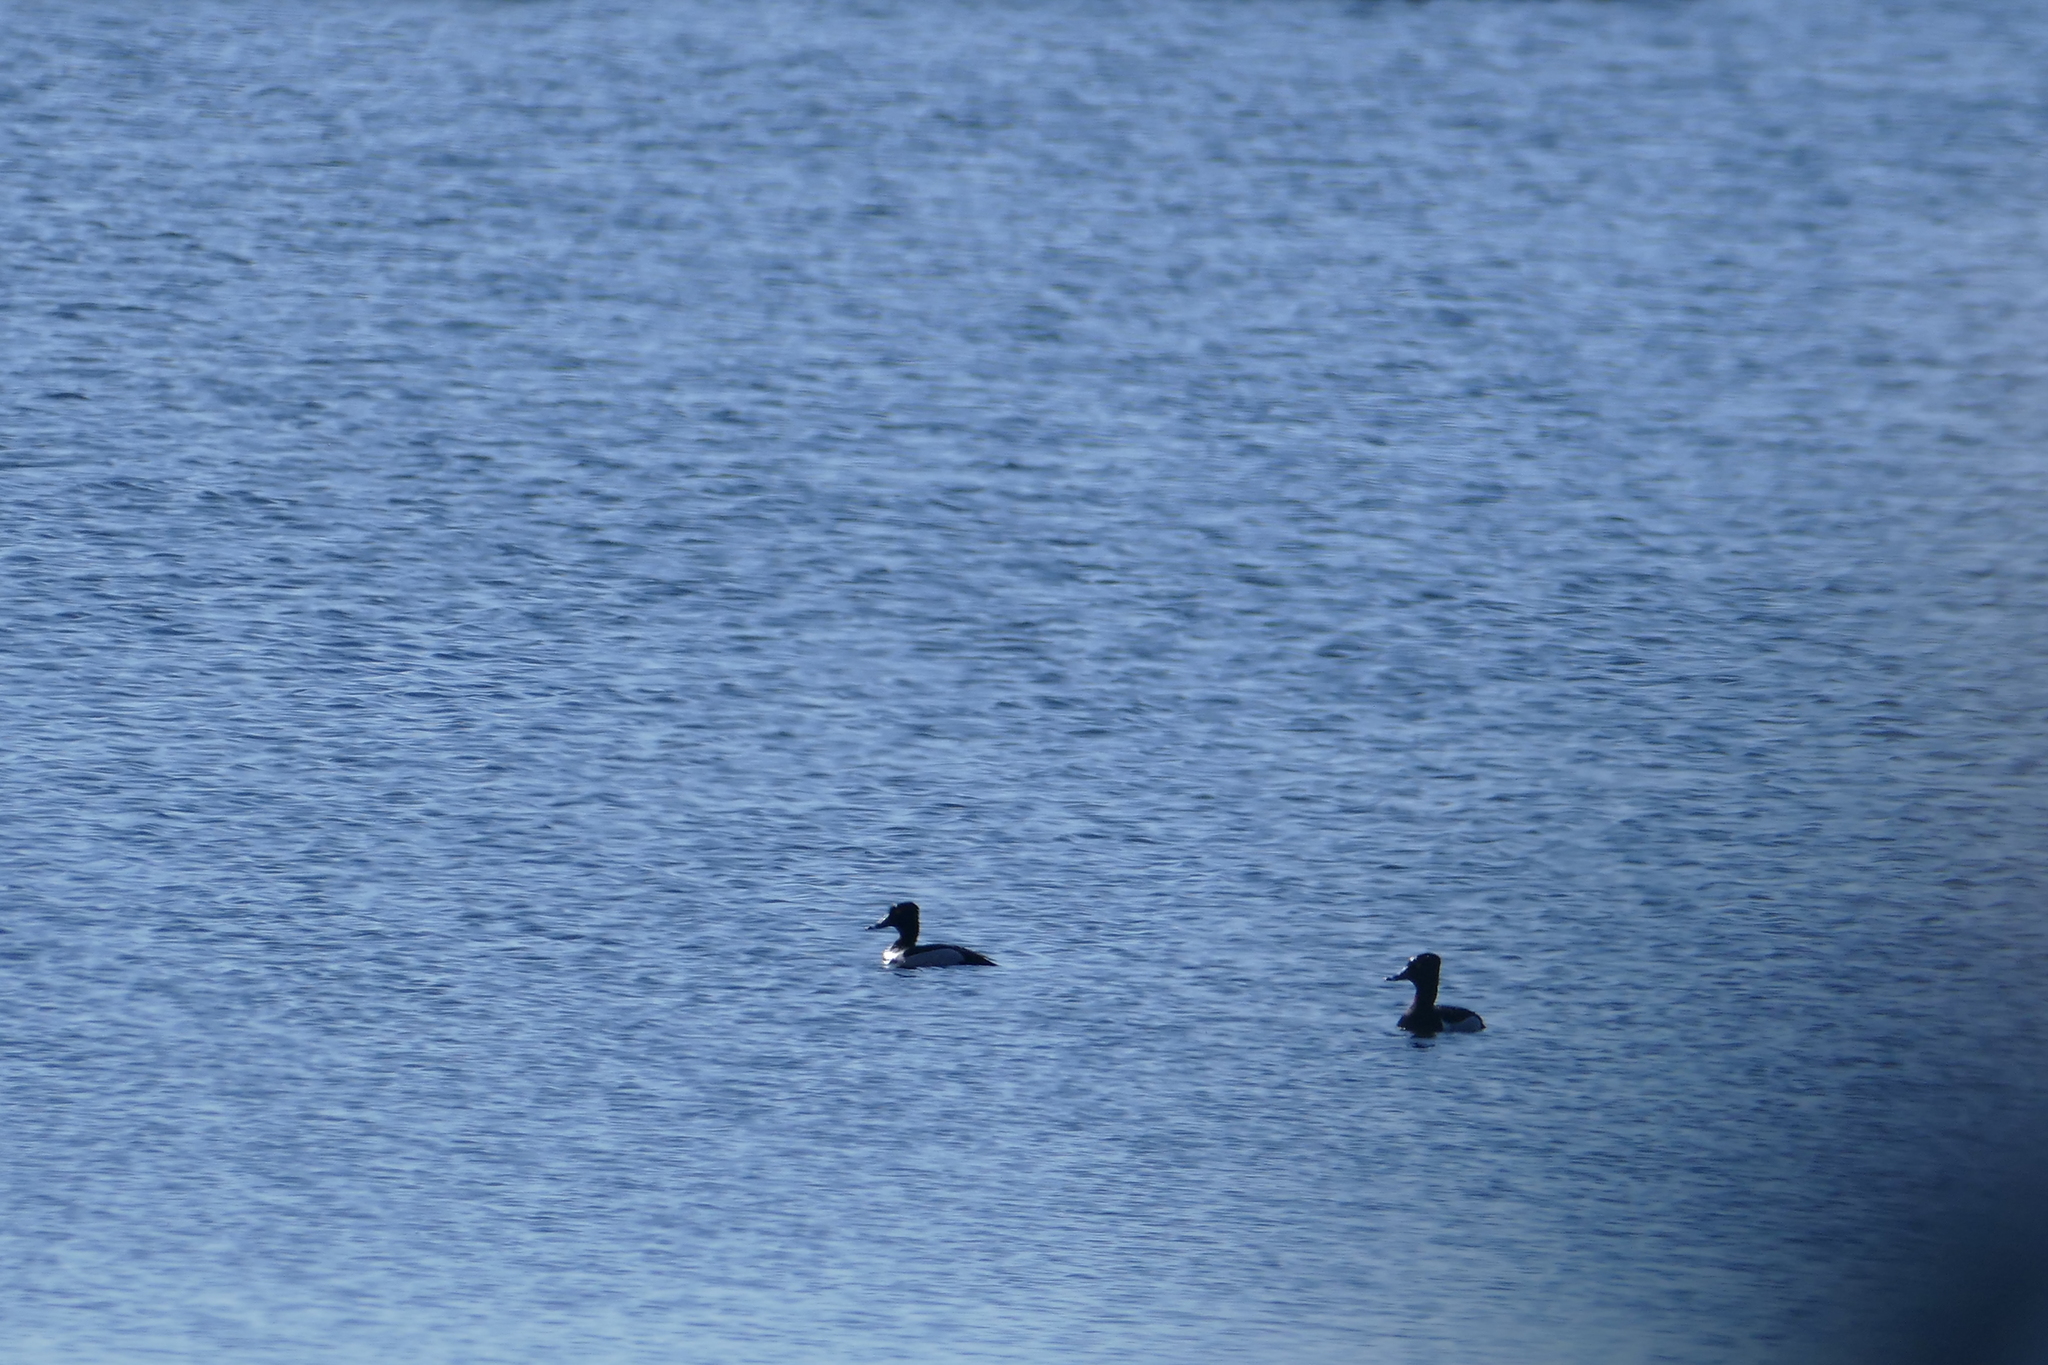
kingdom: Animalia
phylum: Chordata
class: Aves
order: Anseriformes
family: Anatidae
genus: Aythya
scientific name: Aythya collaris
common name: Ring-necked duck
